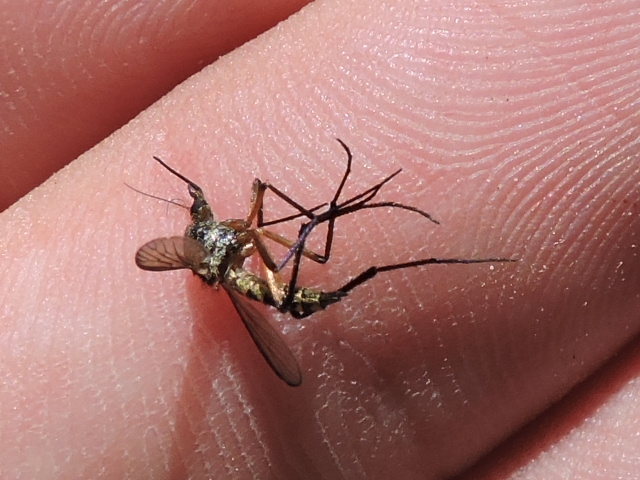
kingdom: Animalia
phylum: Arthropoda
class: Insecta
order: Diptera
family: Culicidae
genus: Psorophora
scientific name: Psorophora cyanescens
